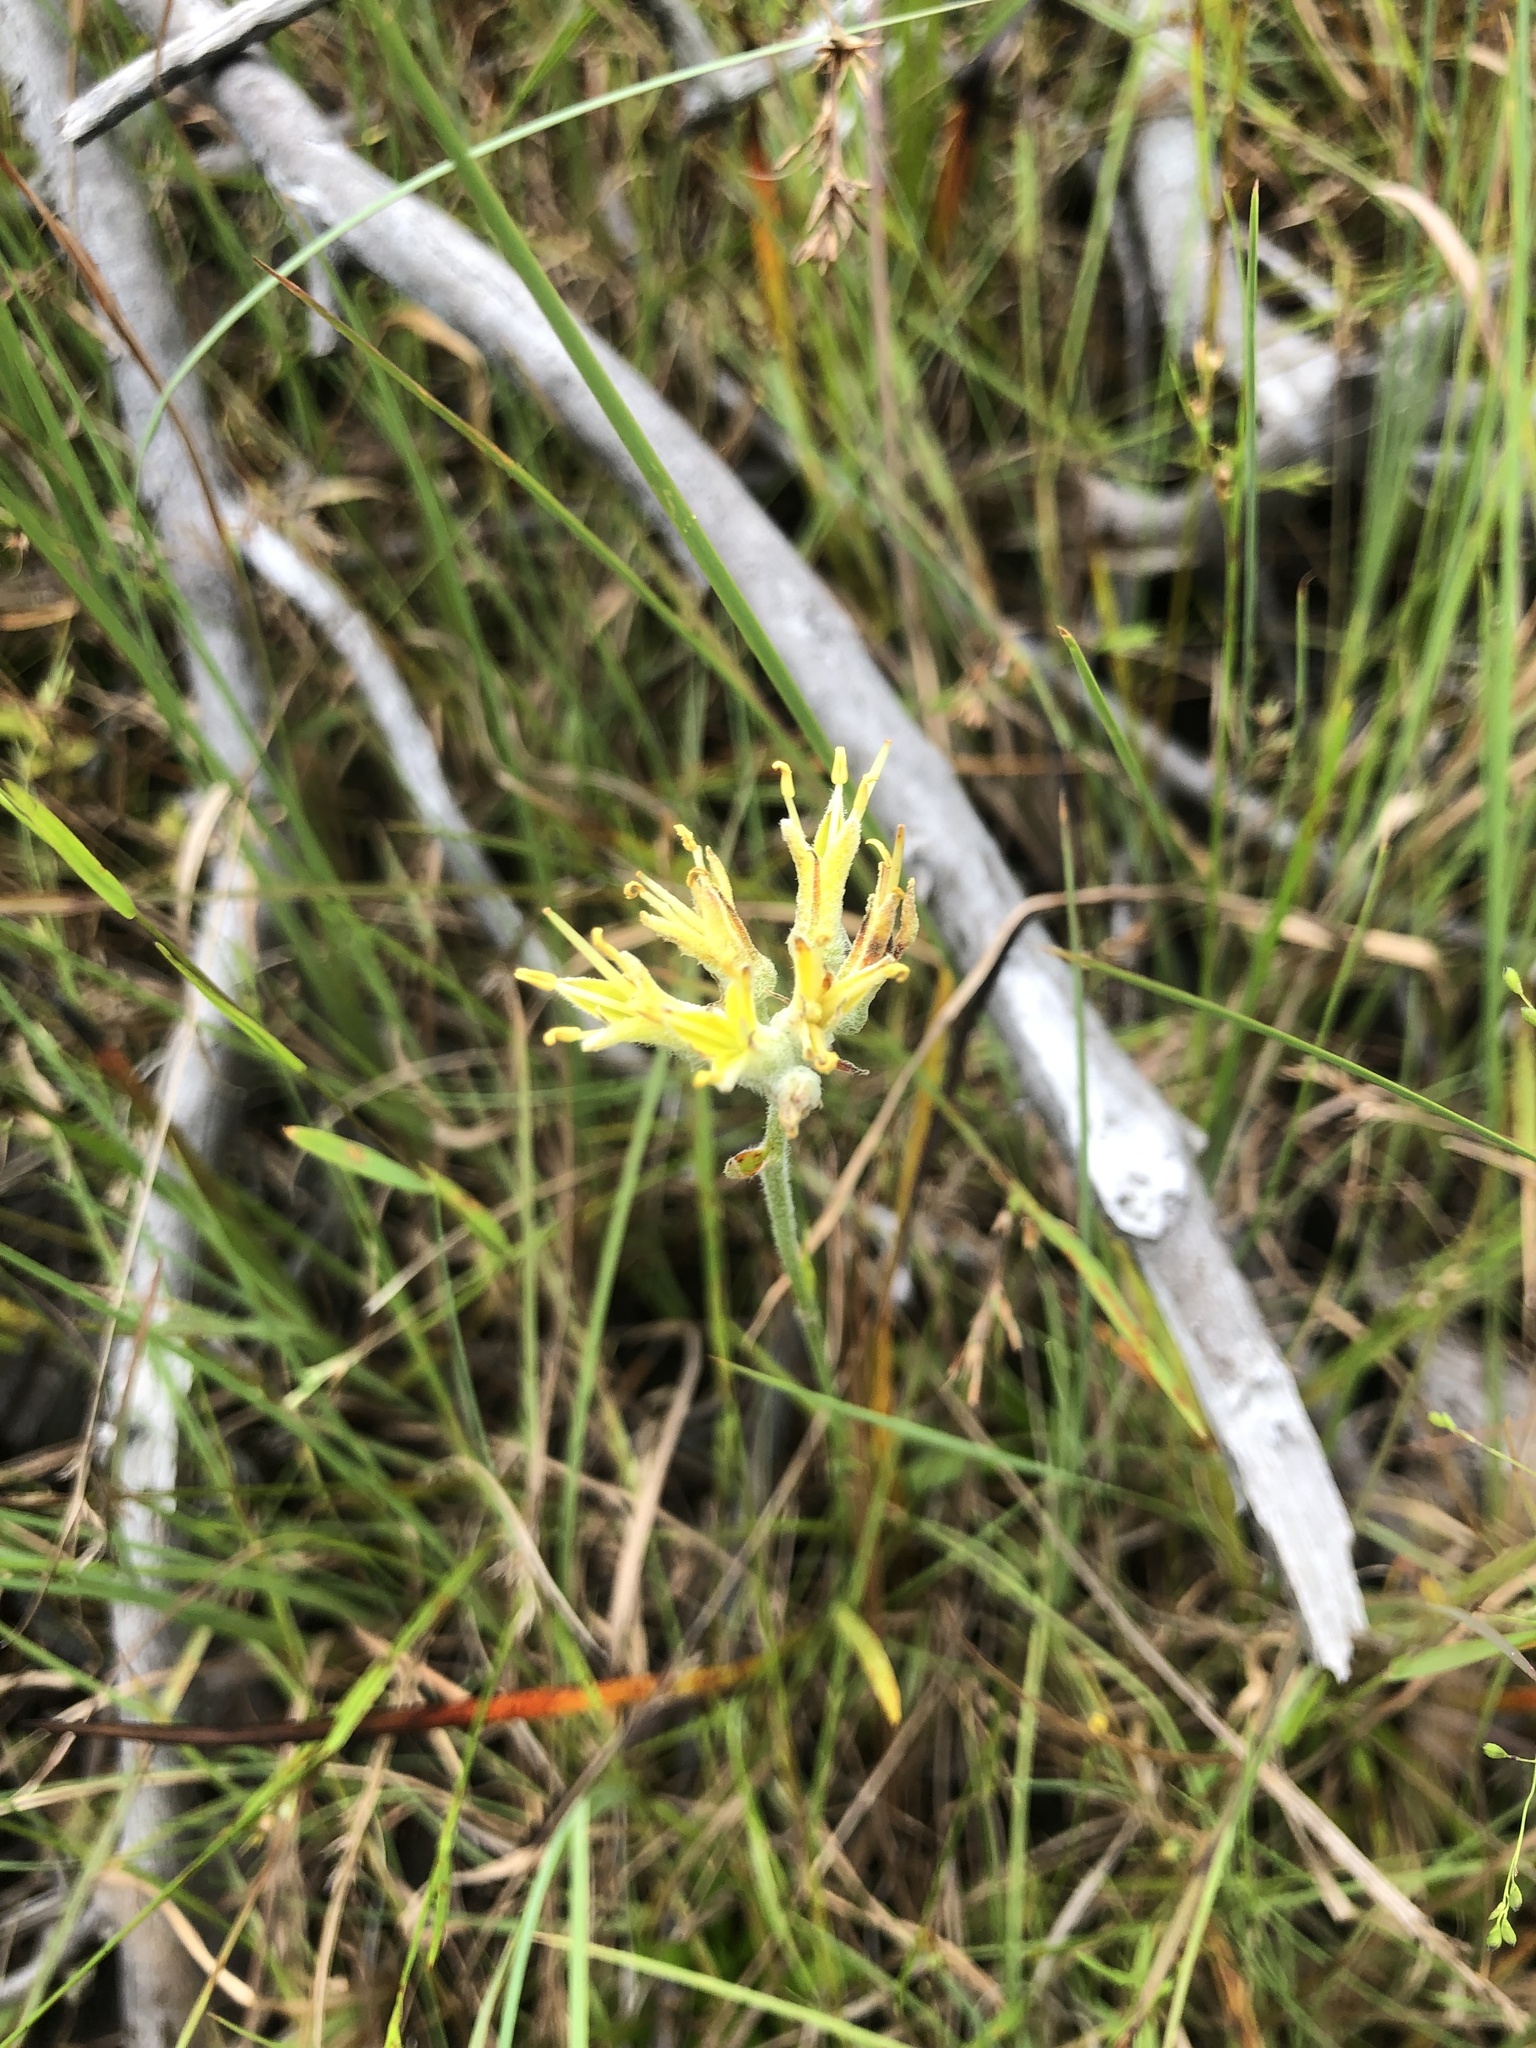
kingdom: Plantae
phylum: Tracheophyta
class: Liliopsida
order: Commelinales
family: Haemodoraceae
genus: Lachnanthes
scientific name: Lachnanthes caroliana
